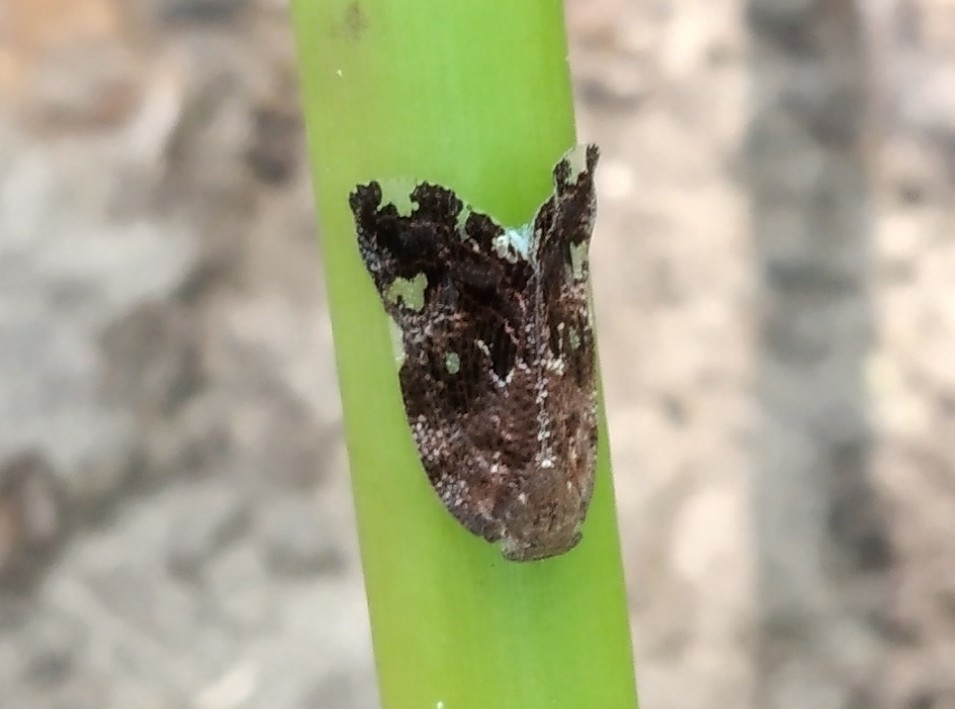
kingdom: Animalia
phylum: Arthropoda
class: Insecta
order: Hemiptera
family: Ricaniidae
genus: Ricania
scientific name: Ricania speculum
